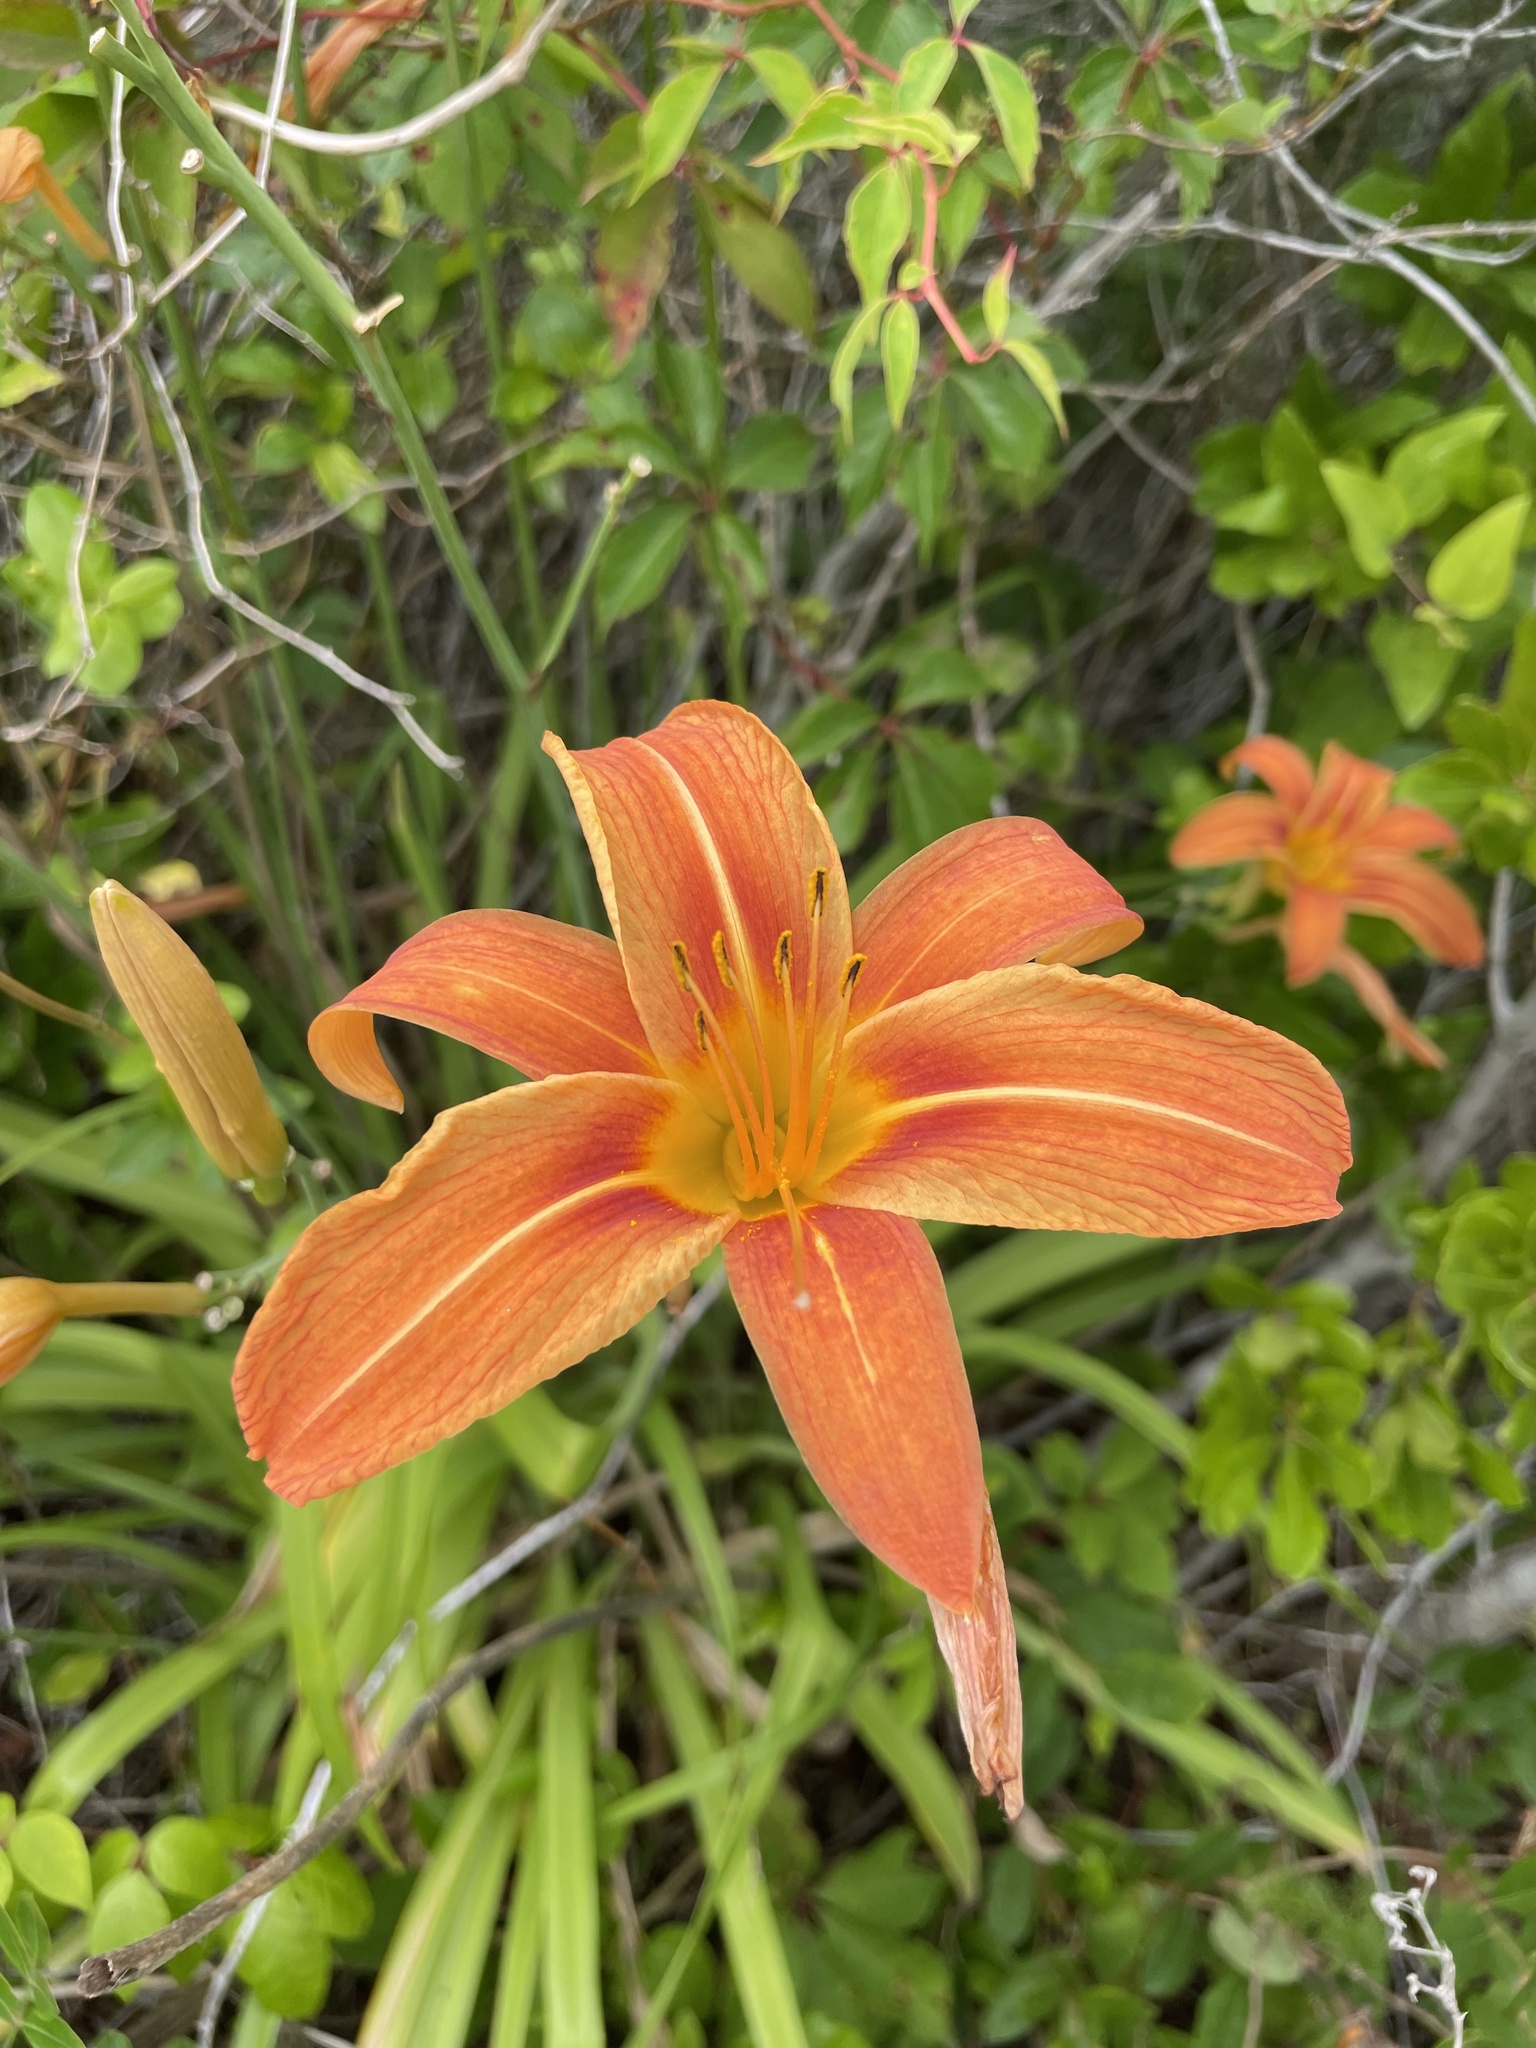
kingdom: Plantae
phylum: Tracheophyta
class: Liliopsida
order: Asparagales
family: Asphodelaceae
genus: Hemerocallis
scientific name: Hemerocallis fulva
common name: Orange day-lily
